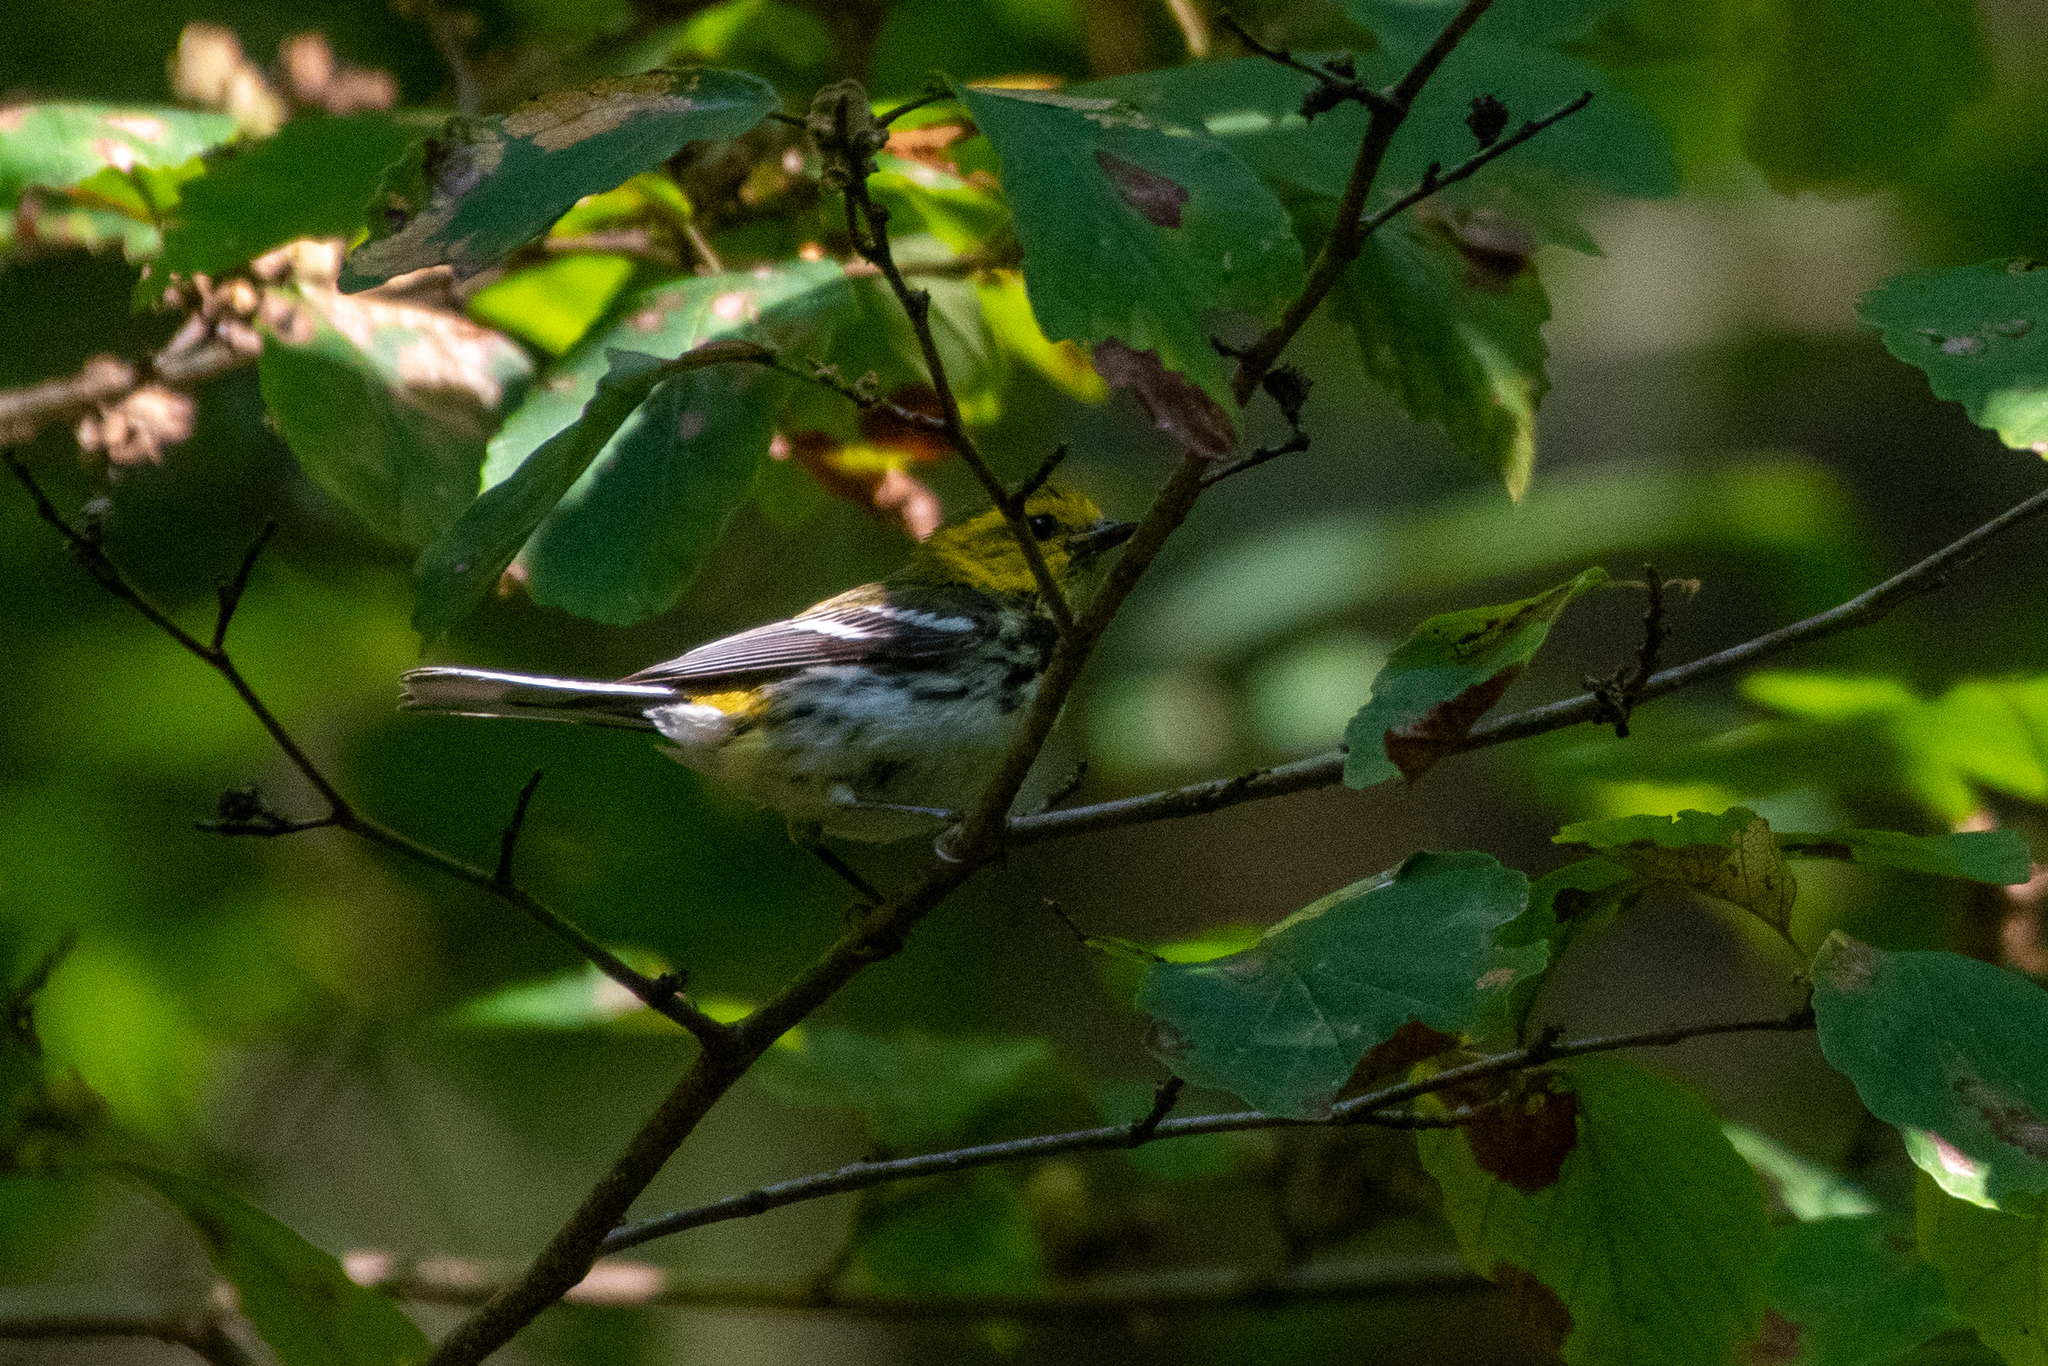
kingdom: Animalia
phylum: Chordata
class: Aves
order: Passeriformes
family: Parulidae
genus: Setophaga
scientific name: Setophaga virens
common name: Black-throated green warbler
